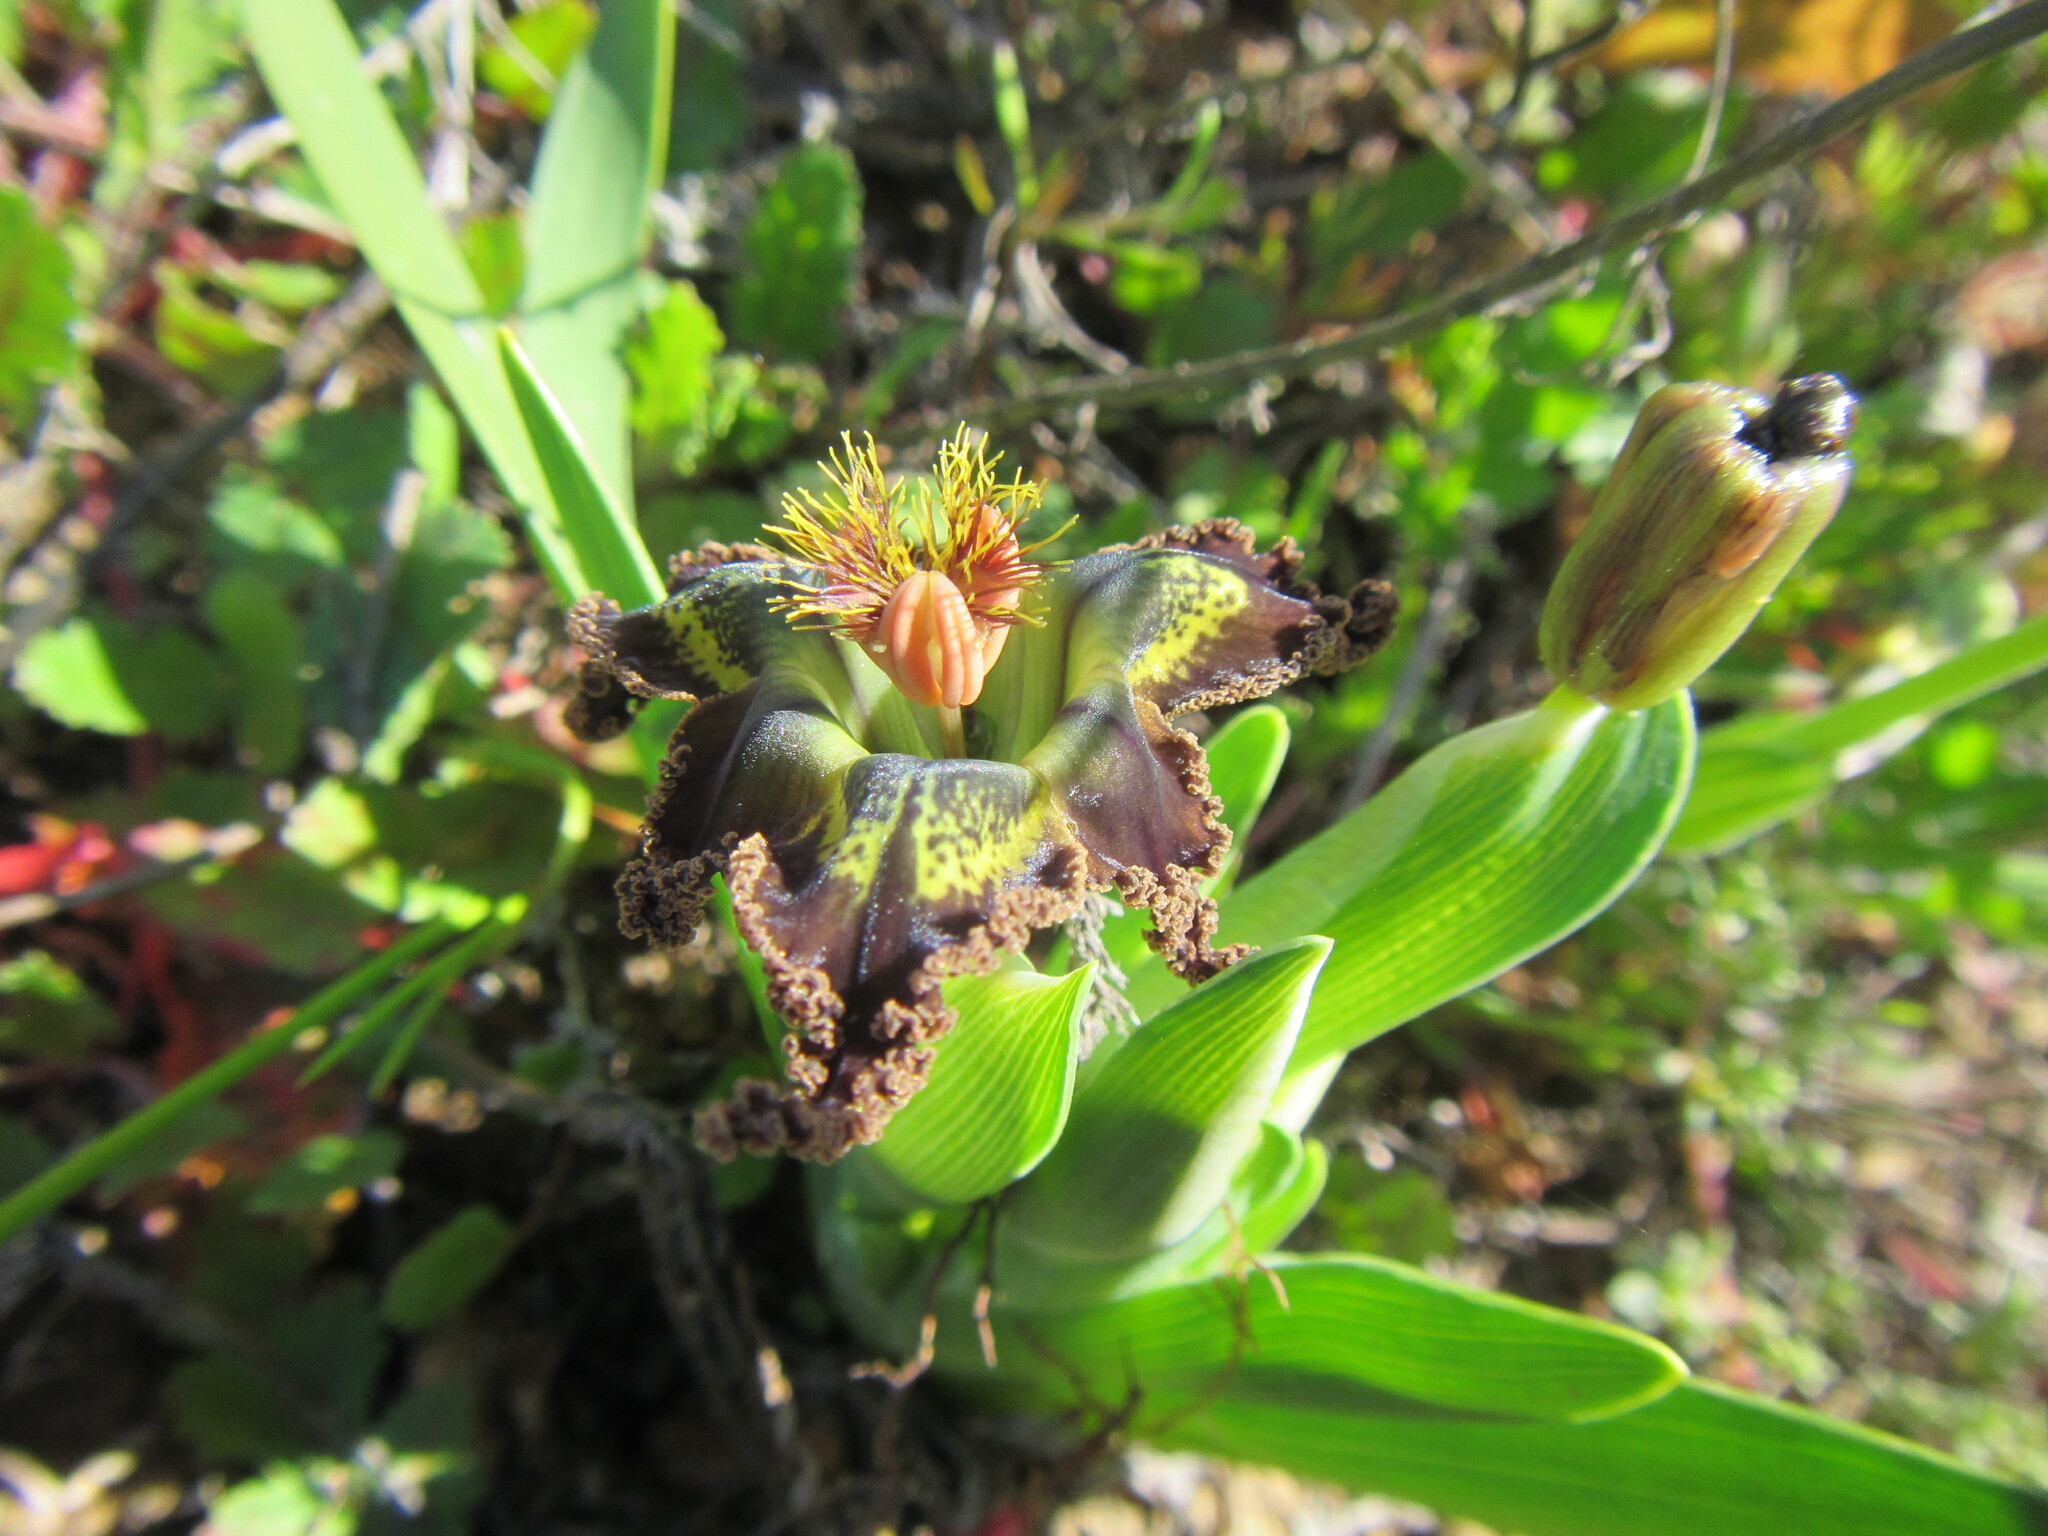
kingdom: Plantae
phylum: Tracheophyta
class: Liliopsida
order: Asparagales
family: Iridaceae
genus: Ferraria
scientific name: Ferraria variabilis
